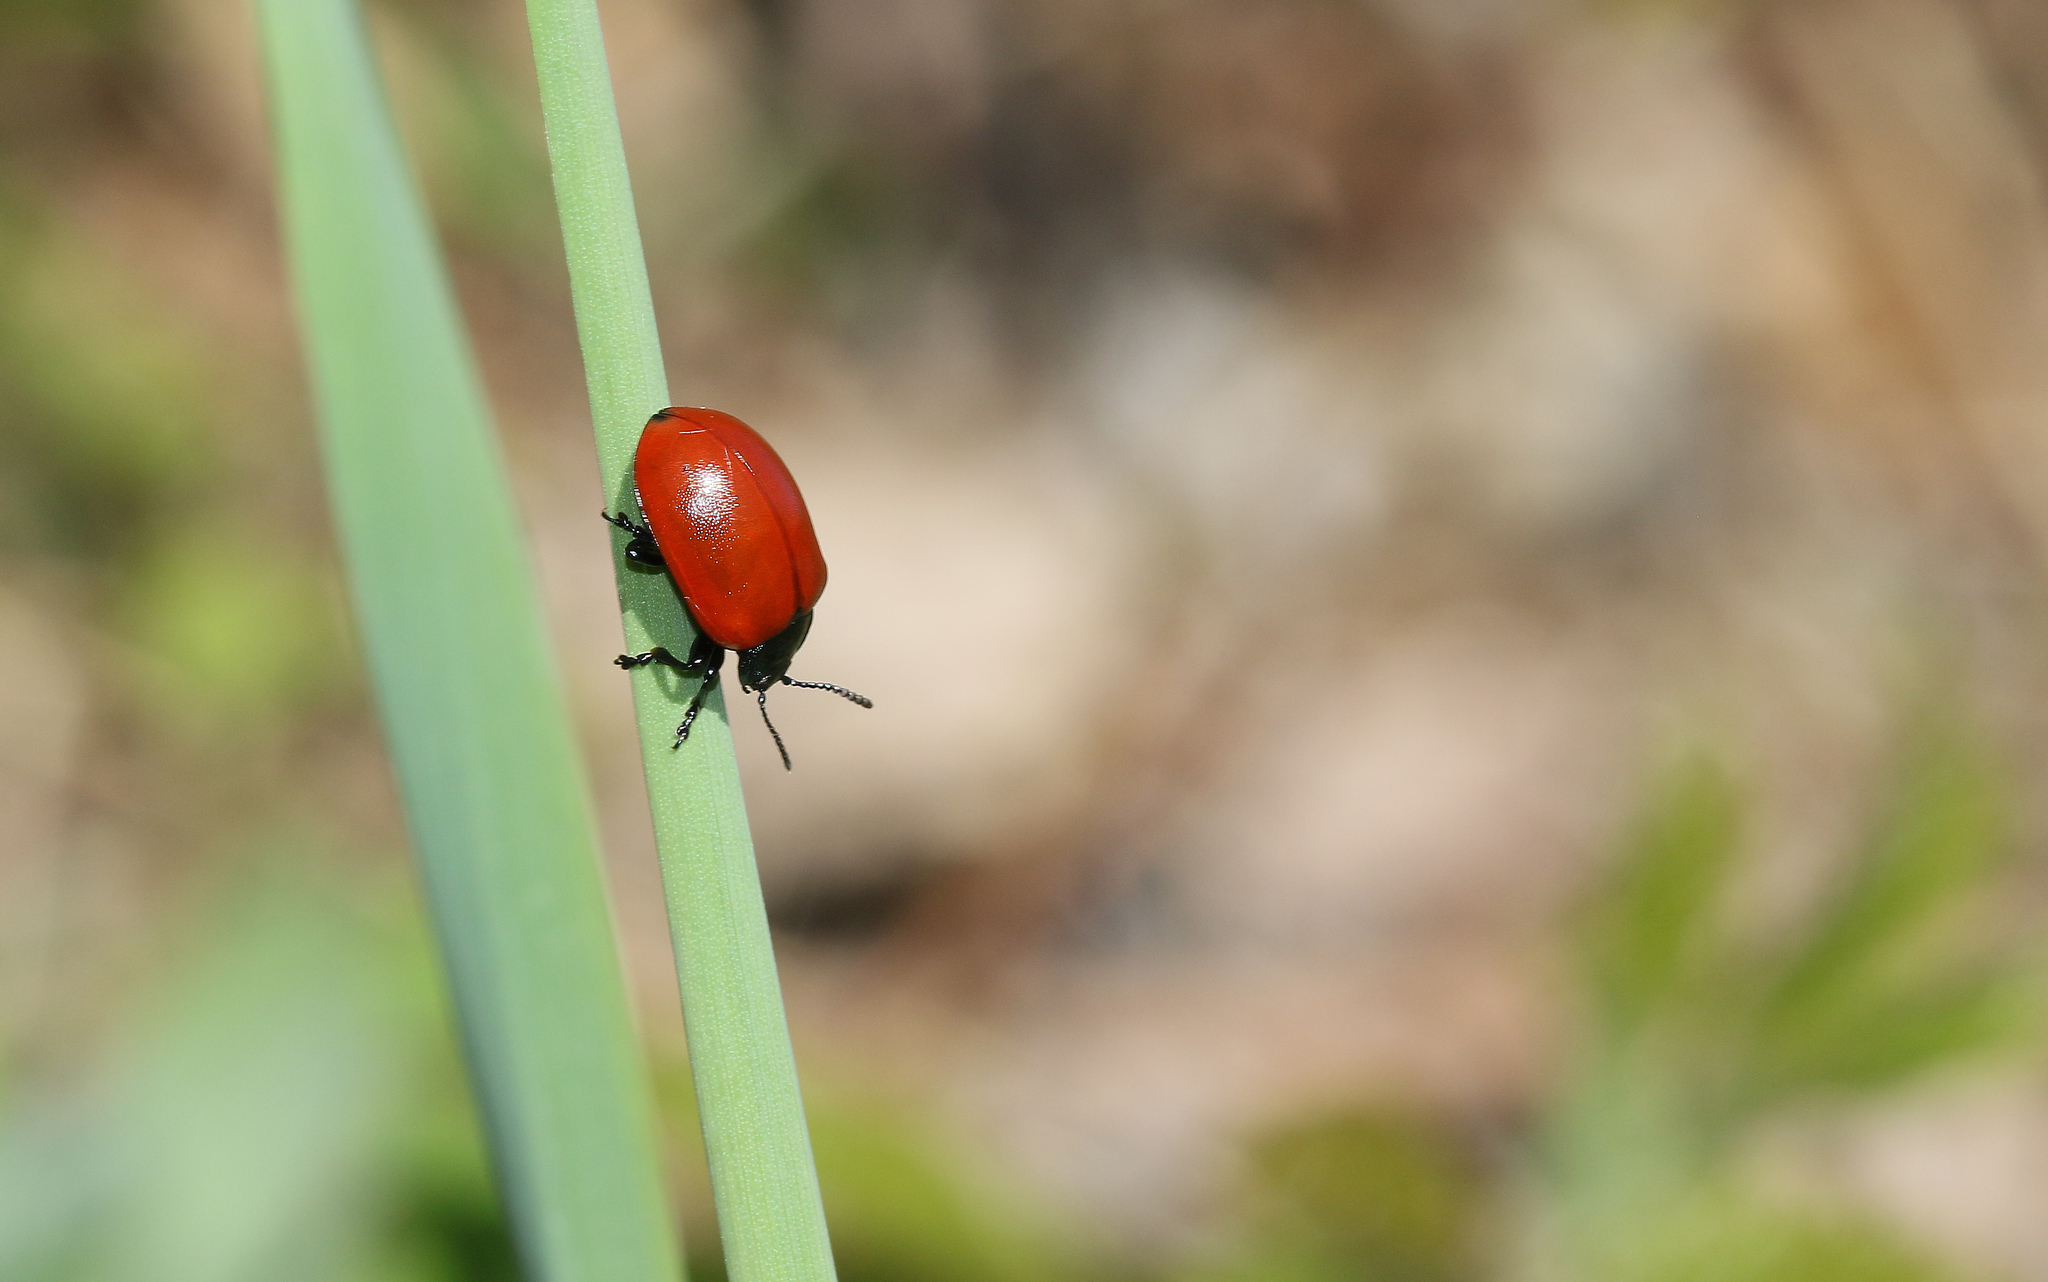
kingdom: Animalia
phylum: Arthropoda
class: Insecta
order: Coleoptera
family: Chrysomelidae
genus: Chrysomela
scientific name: Chrysomela populi
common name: Red poplar leaf beetle
